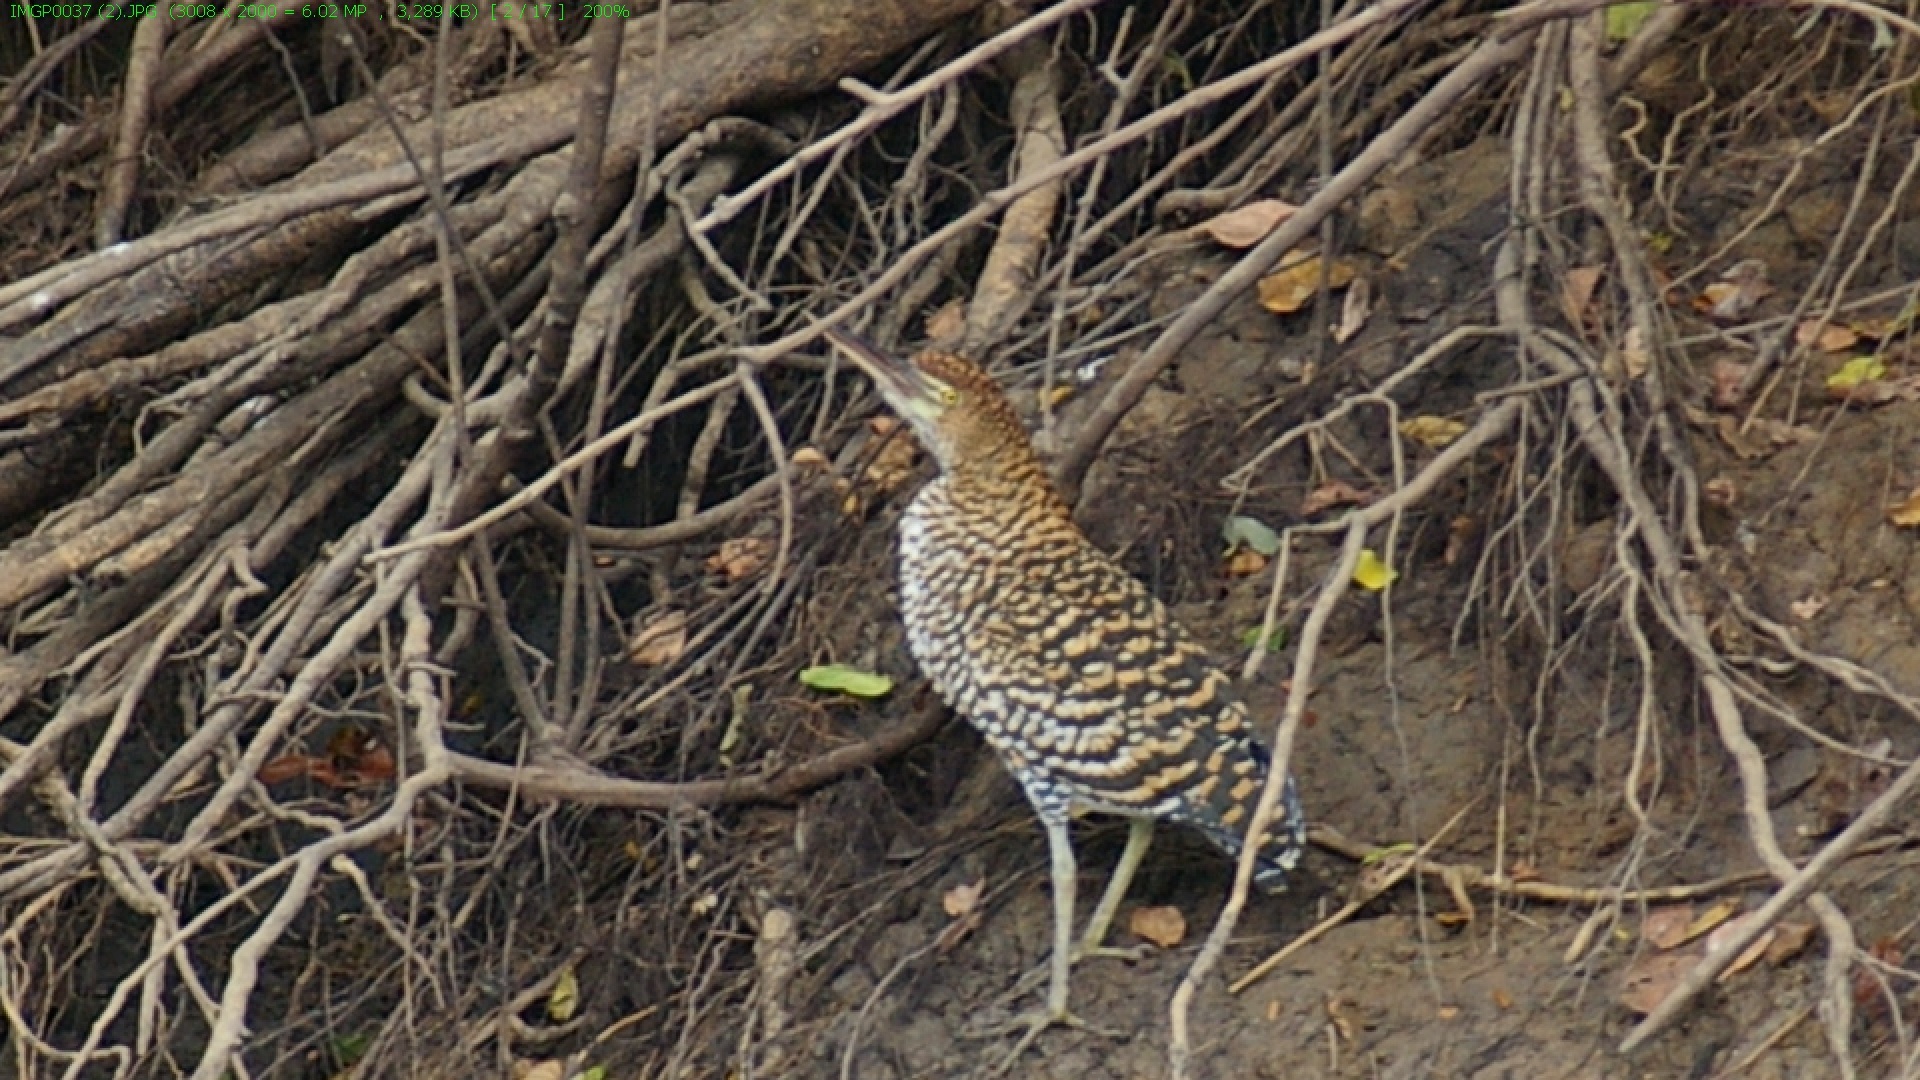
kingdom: Animalia
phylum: Chordata
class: Aves
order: Pelecaniformes
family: Ardeidae
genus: Tigrisoma
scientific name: Tigrisoma lineatum
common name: Rufescent tiger-heron
